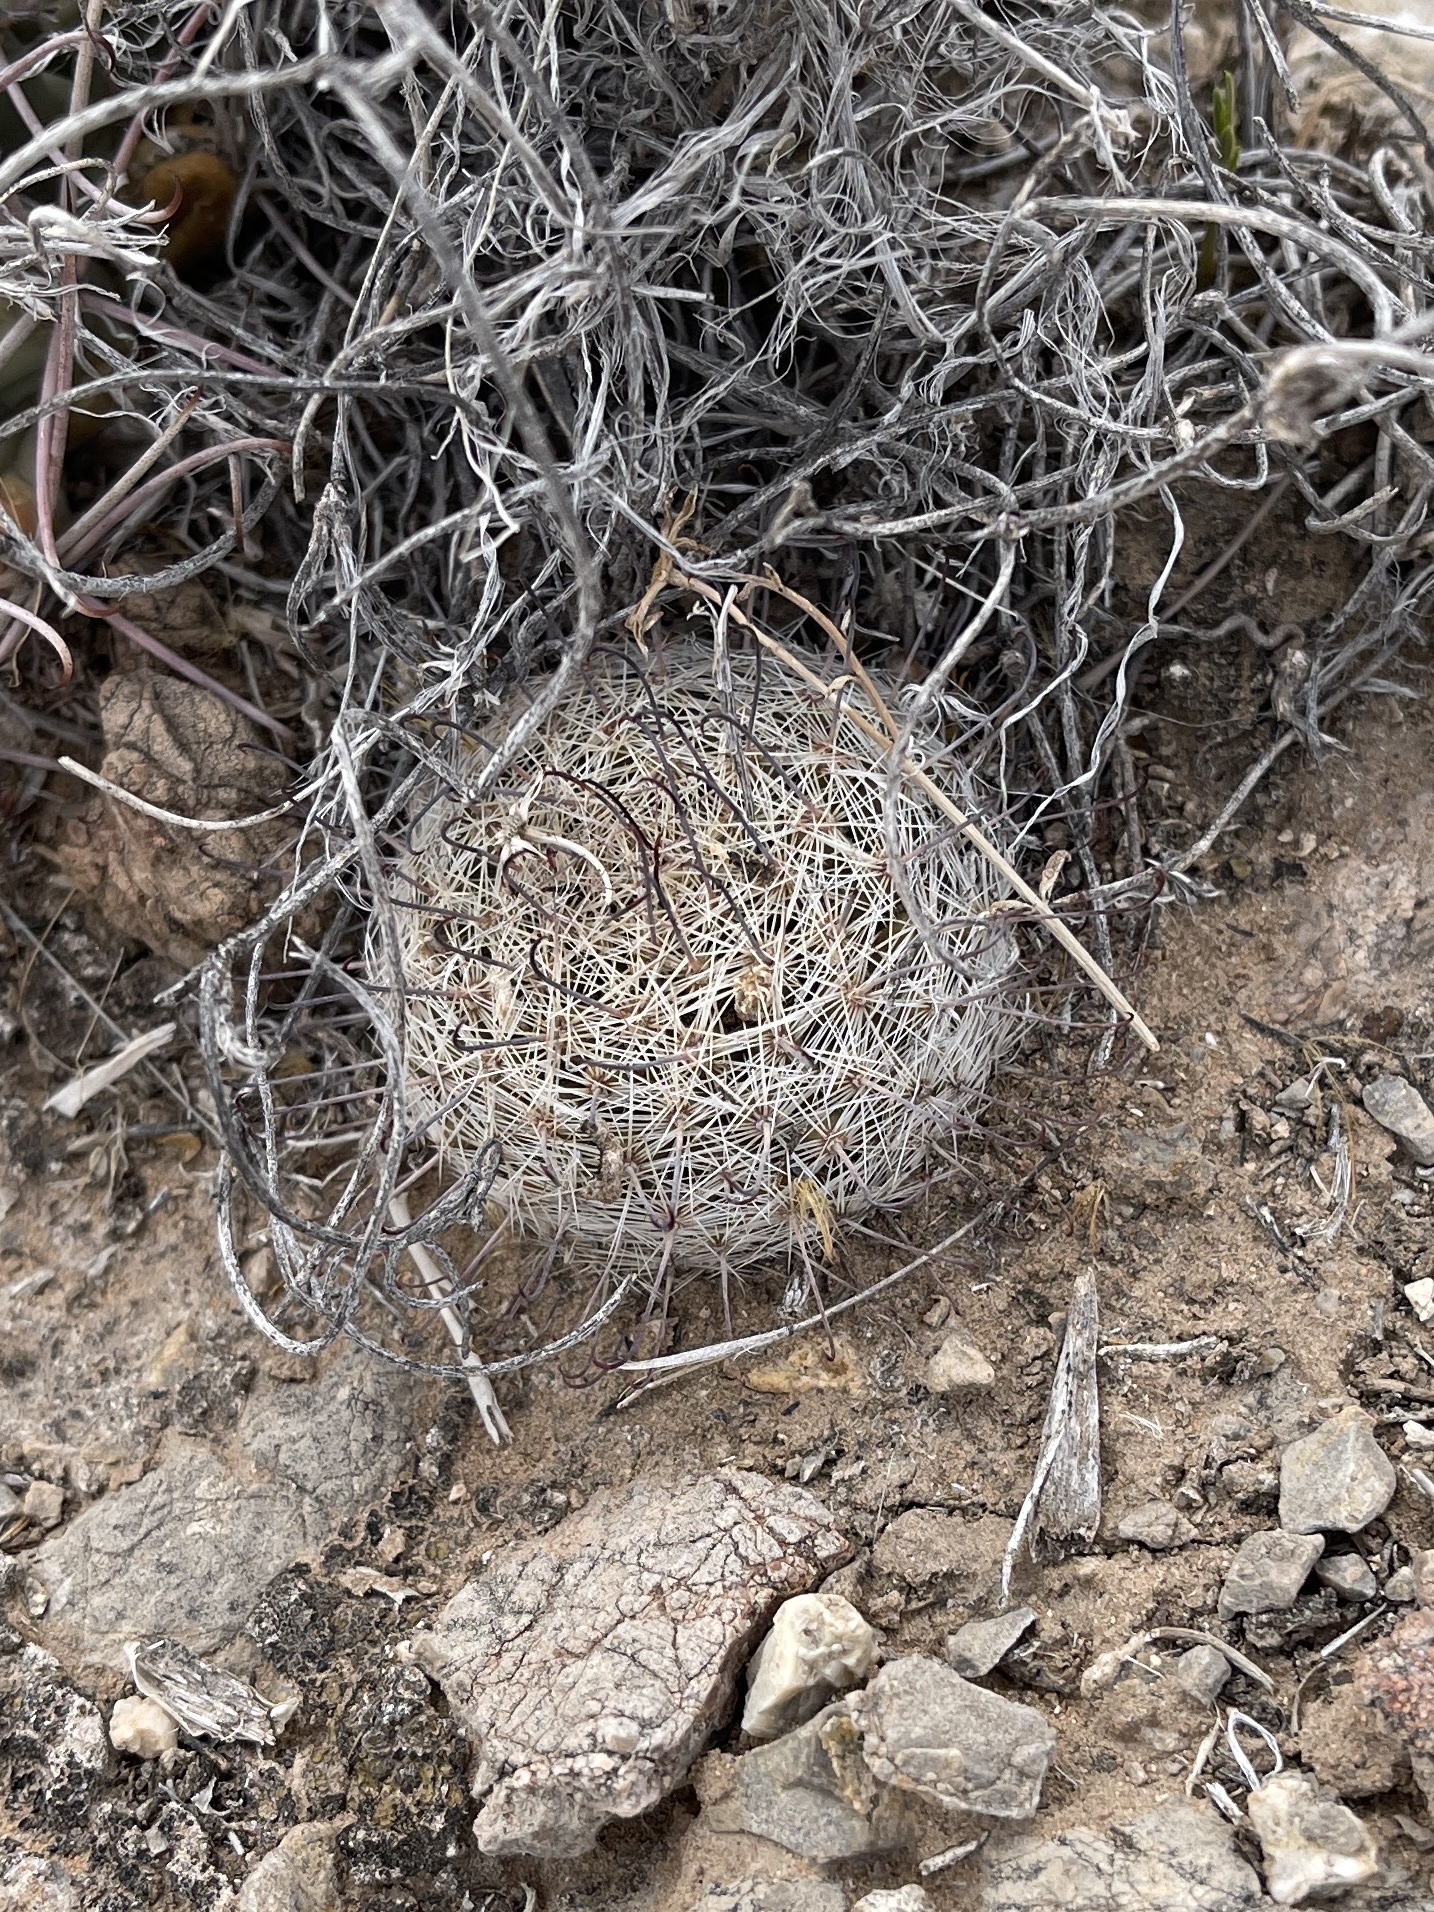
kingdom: Plantae
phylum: Tracheophyta
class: Magnoliopsida
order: Caryophyllales
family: Cactaceae
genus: Cochemiea
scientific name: Cochemiea grahamii
